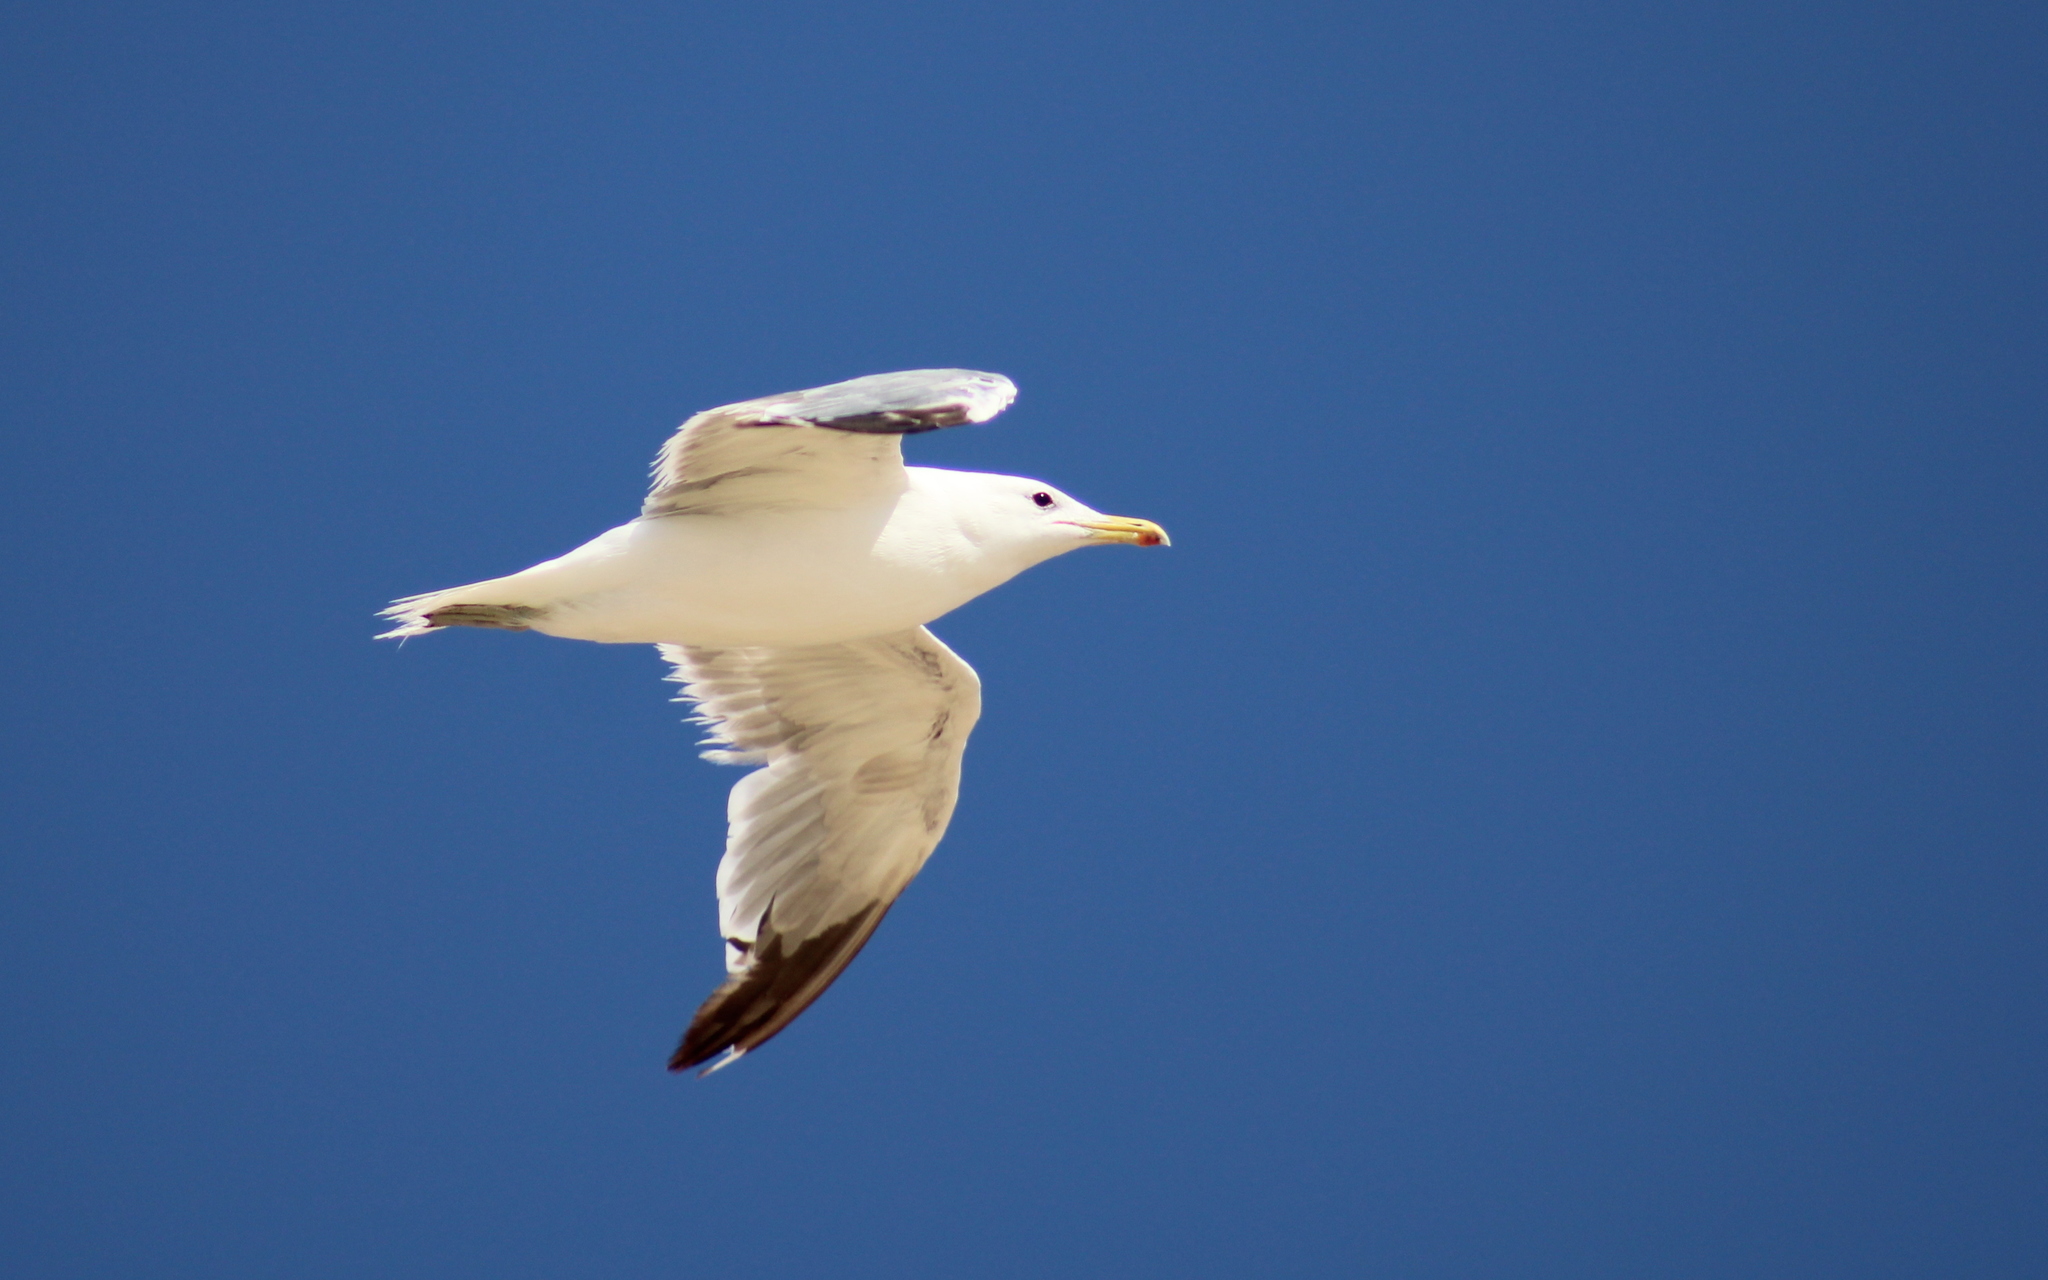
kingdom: Animalia
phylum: Chordata
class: Aves
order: Charadriiformes
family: Laridae
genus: Larus
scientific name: Larus californicus
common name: California gull
